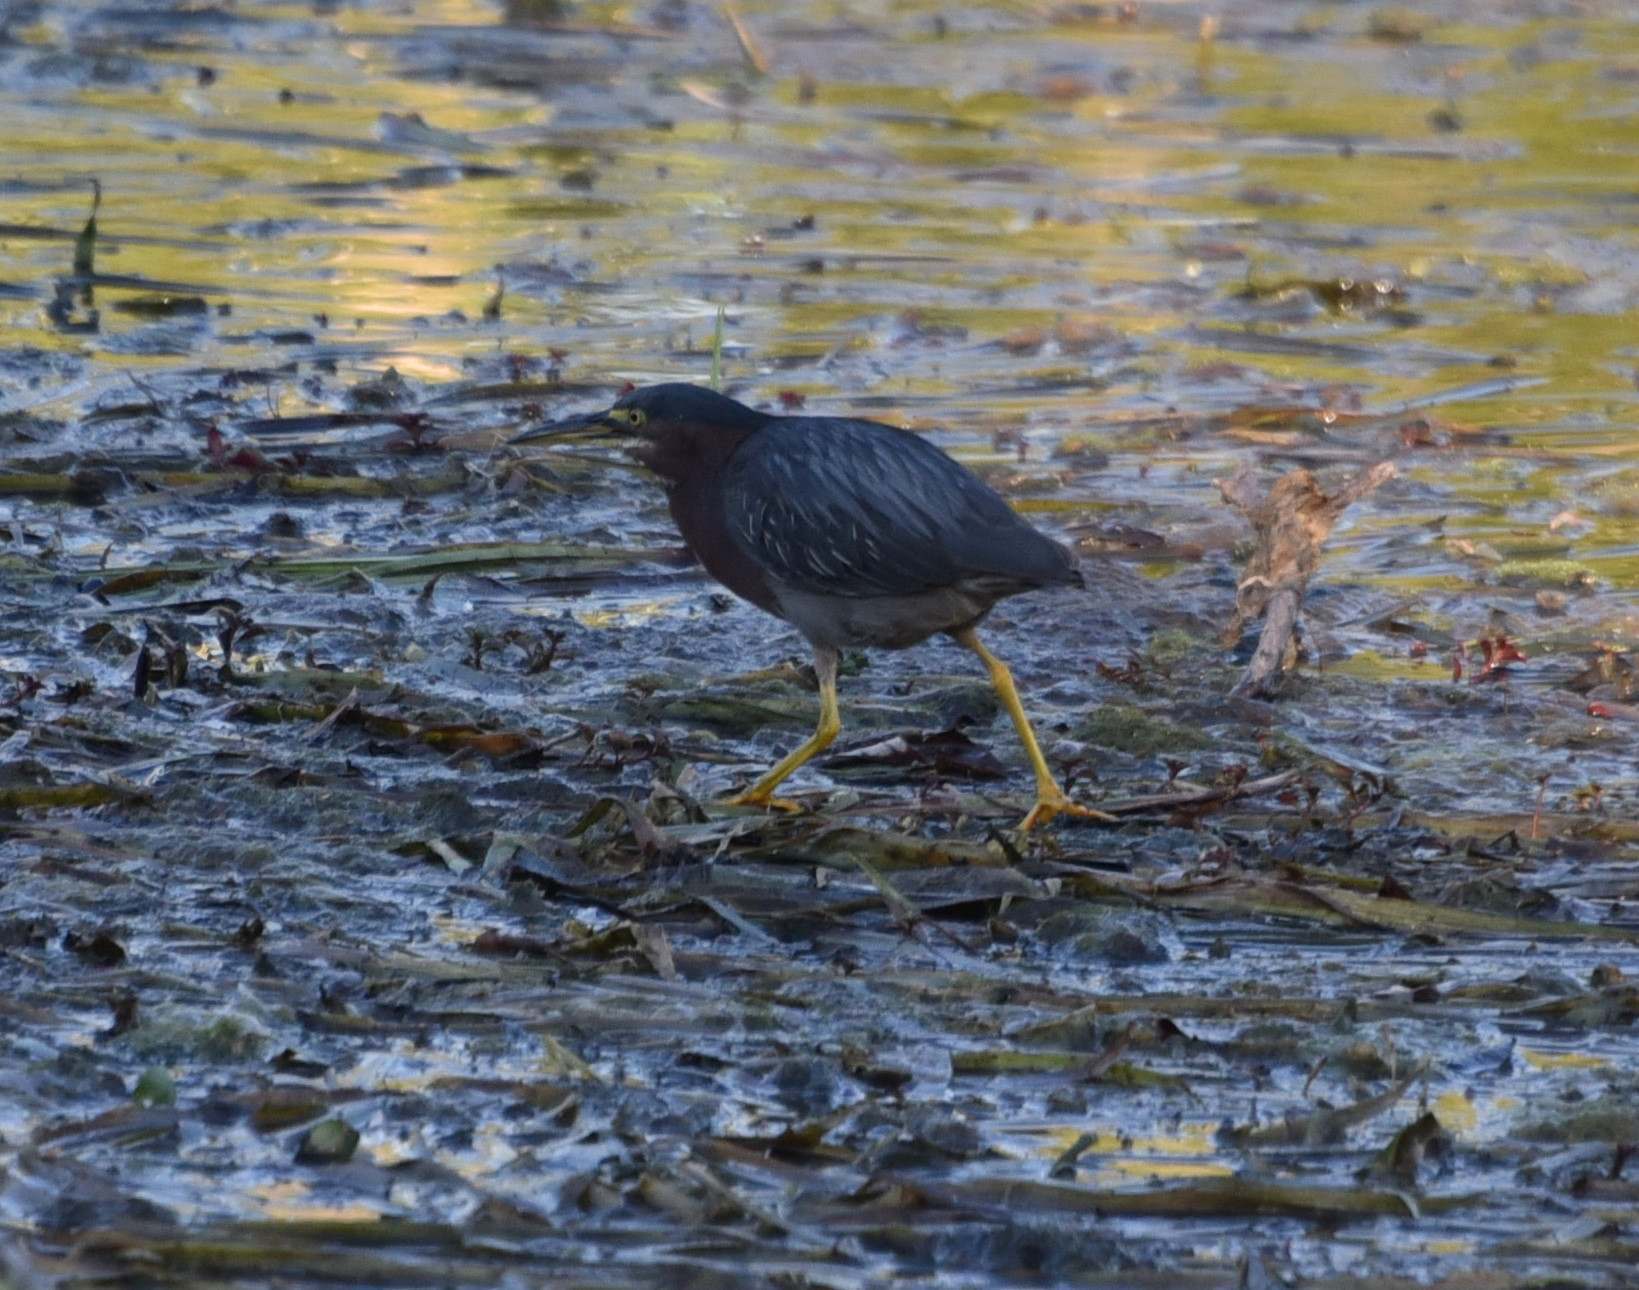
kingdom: Animalia
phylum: Chordata
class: Aves
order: Pelecaniformes
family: Ardeidae
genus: Butorides
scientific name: Butorides virescens
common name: Green heron
